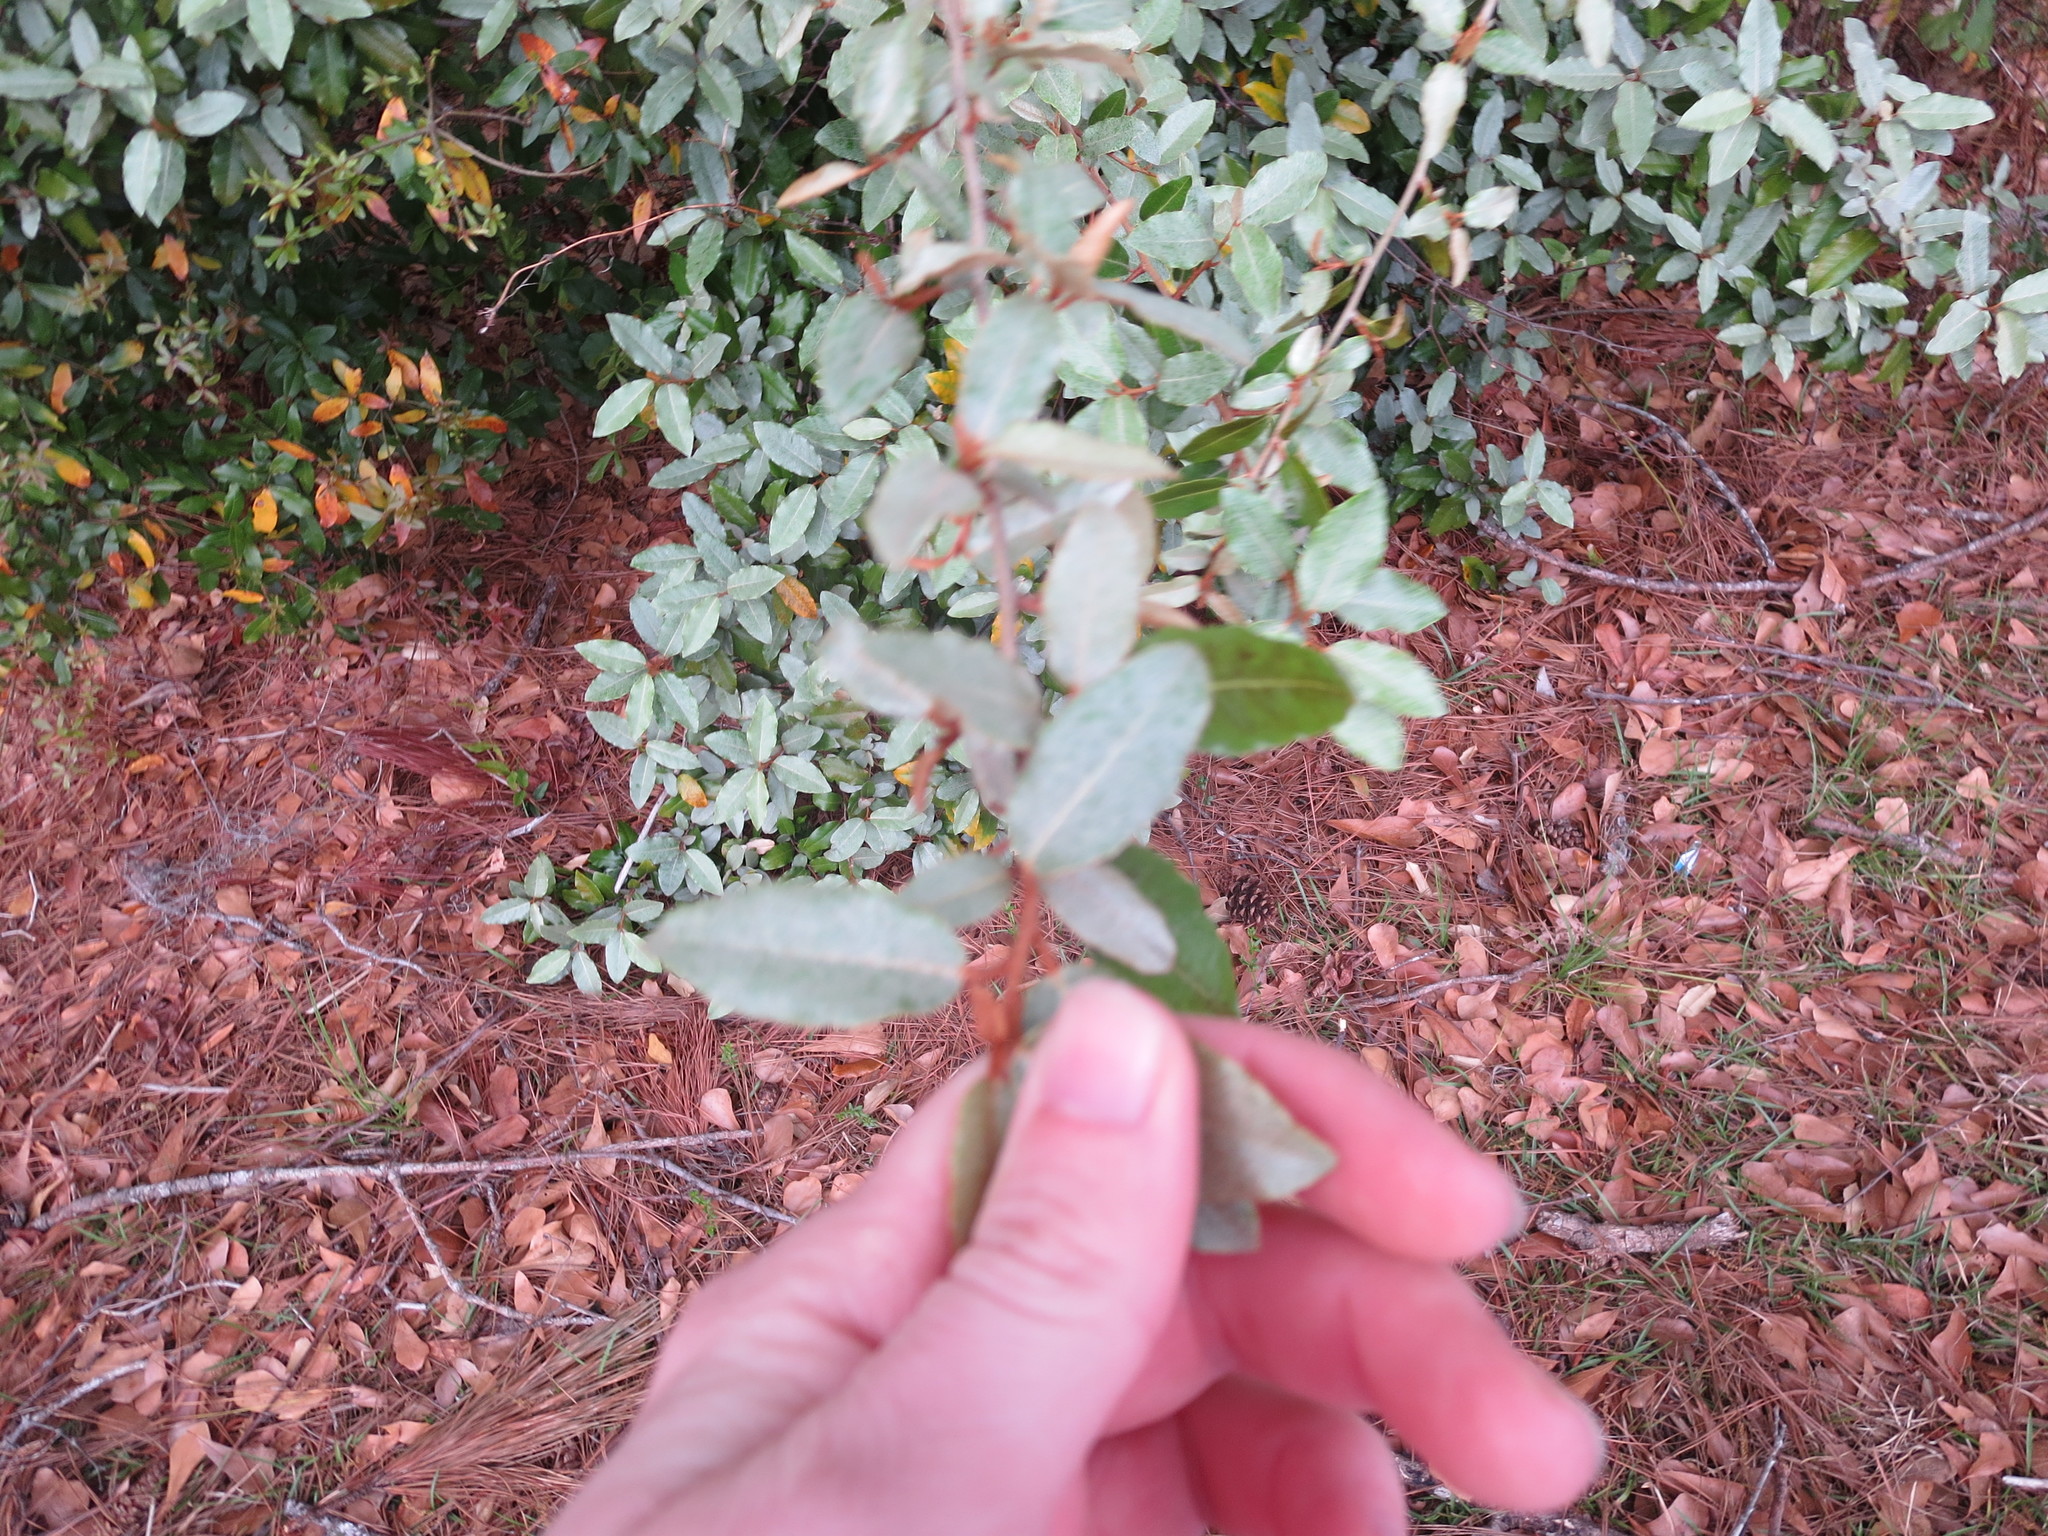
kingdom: Plantae
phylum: Tracheophyta
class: Magnoliopsida
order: Rosales
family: Elaeagnaceae
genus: Elaeagnus
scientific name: Elaeagnus pungens
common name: Spiny oleaster
